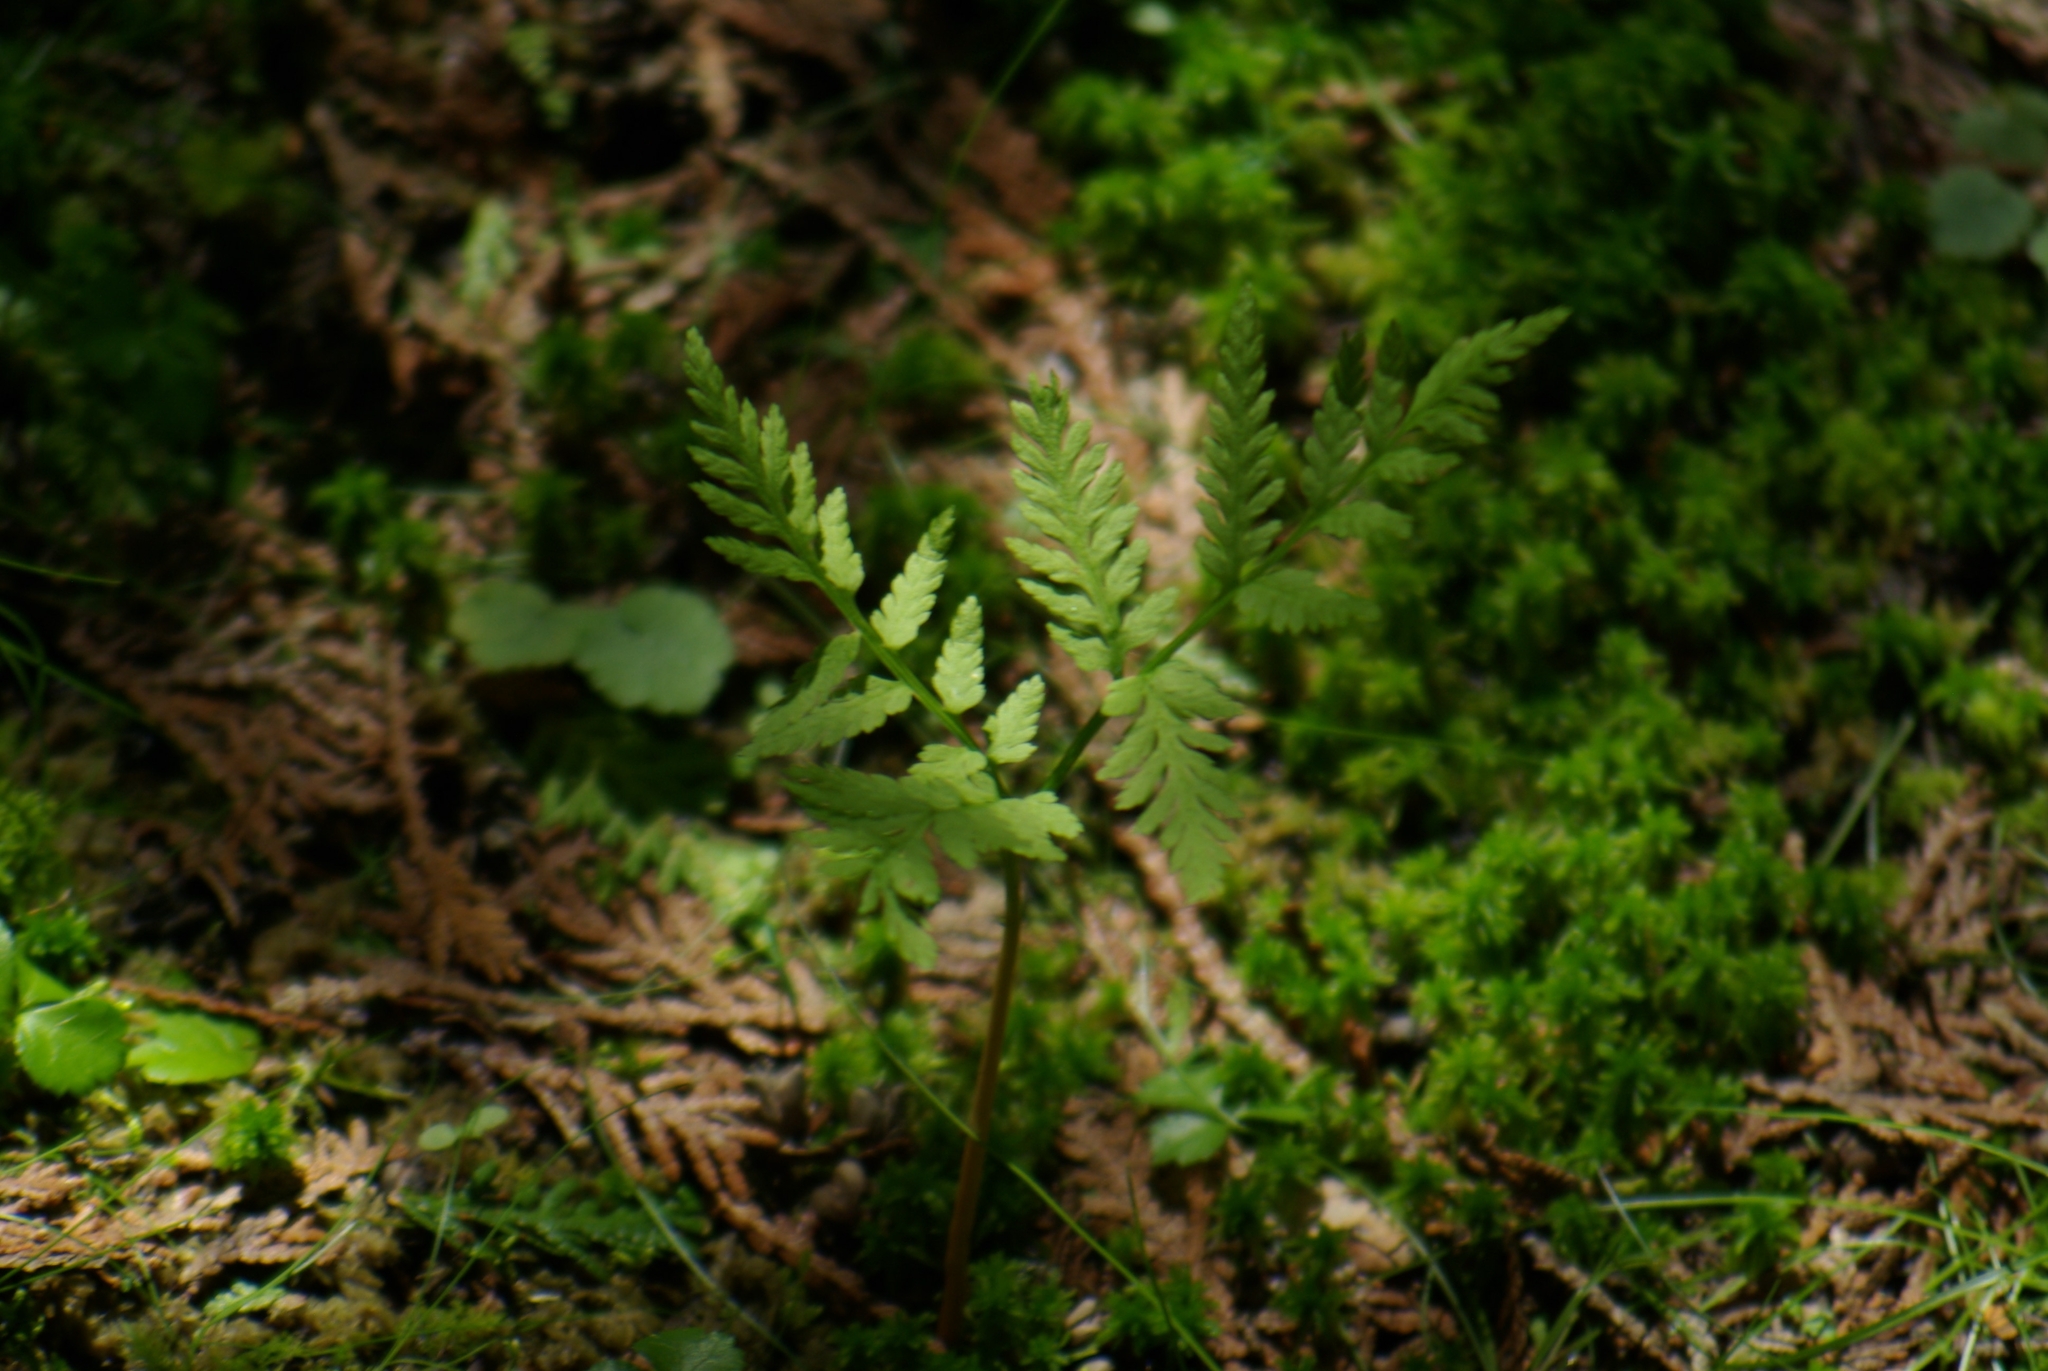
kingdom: Plantae
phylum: Tracheophyta
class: Polypodiopsida
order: Ophioglossales
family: Ophioglossaceae
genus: Botrypus
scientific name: Botrypus virginianus
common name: Common grapefern
